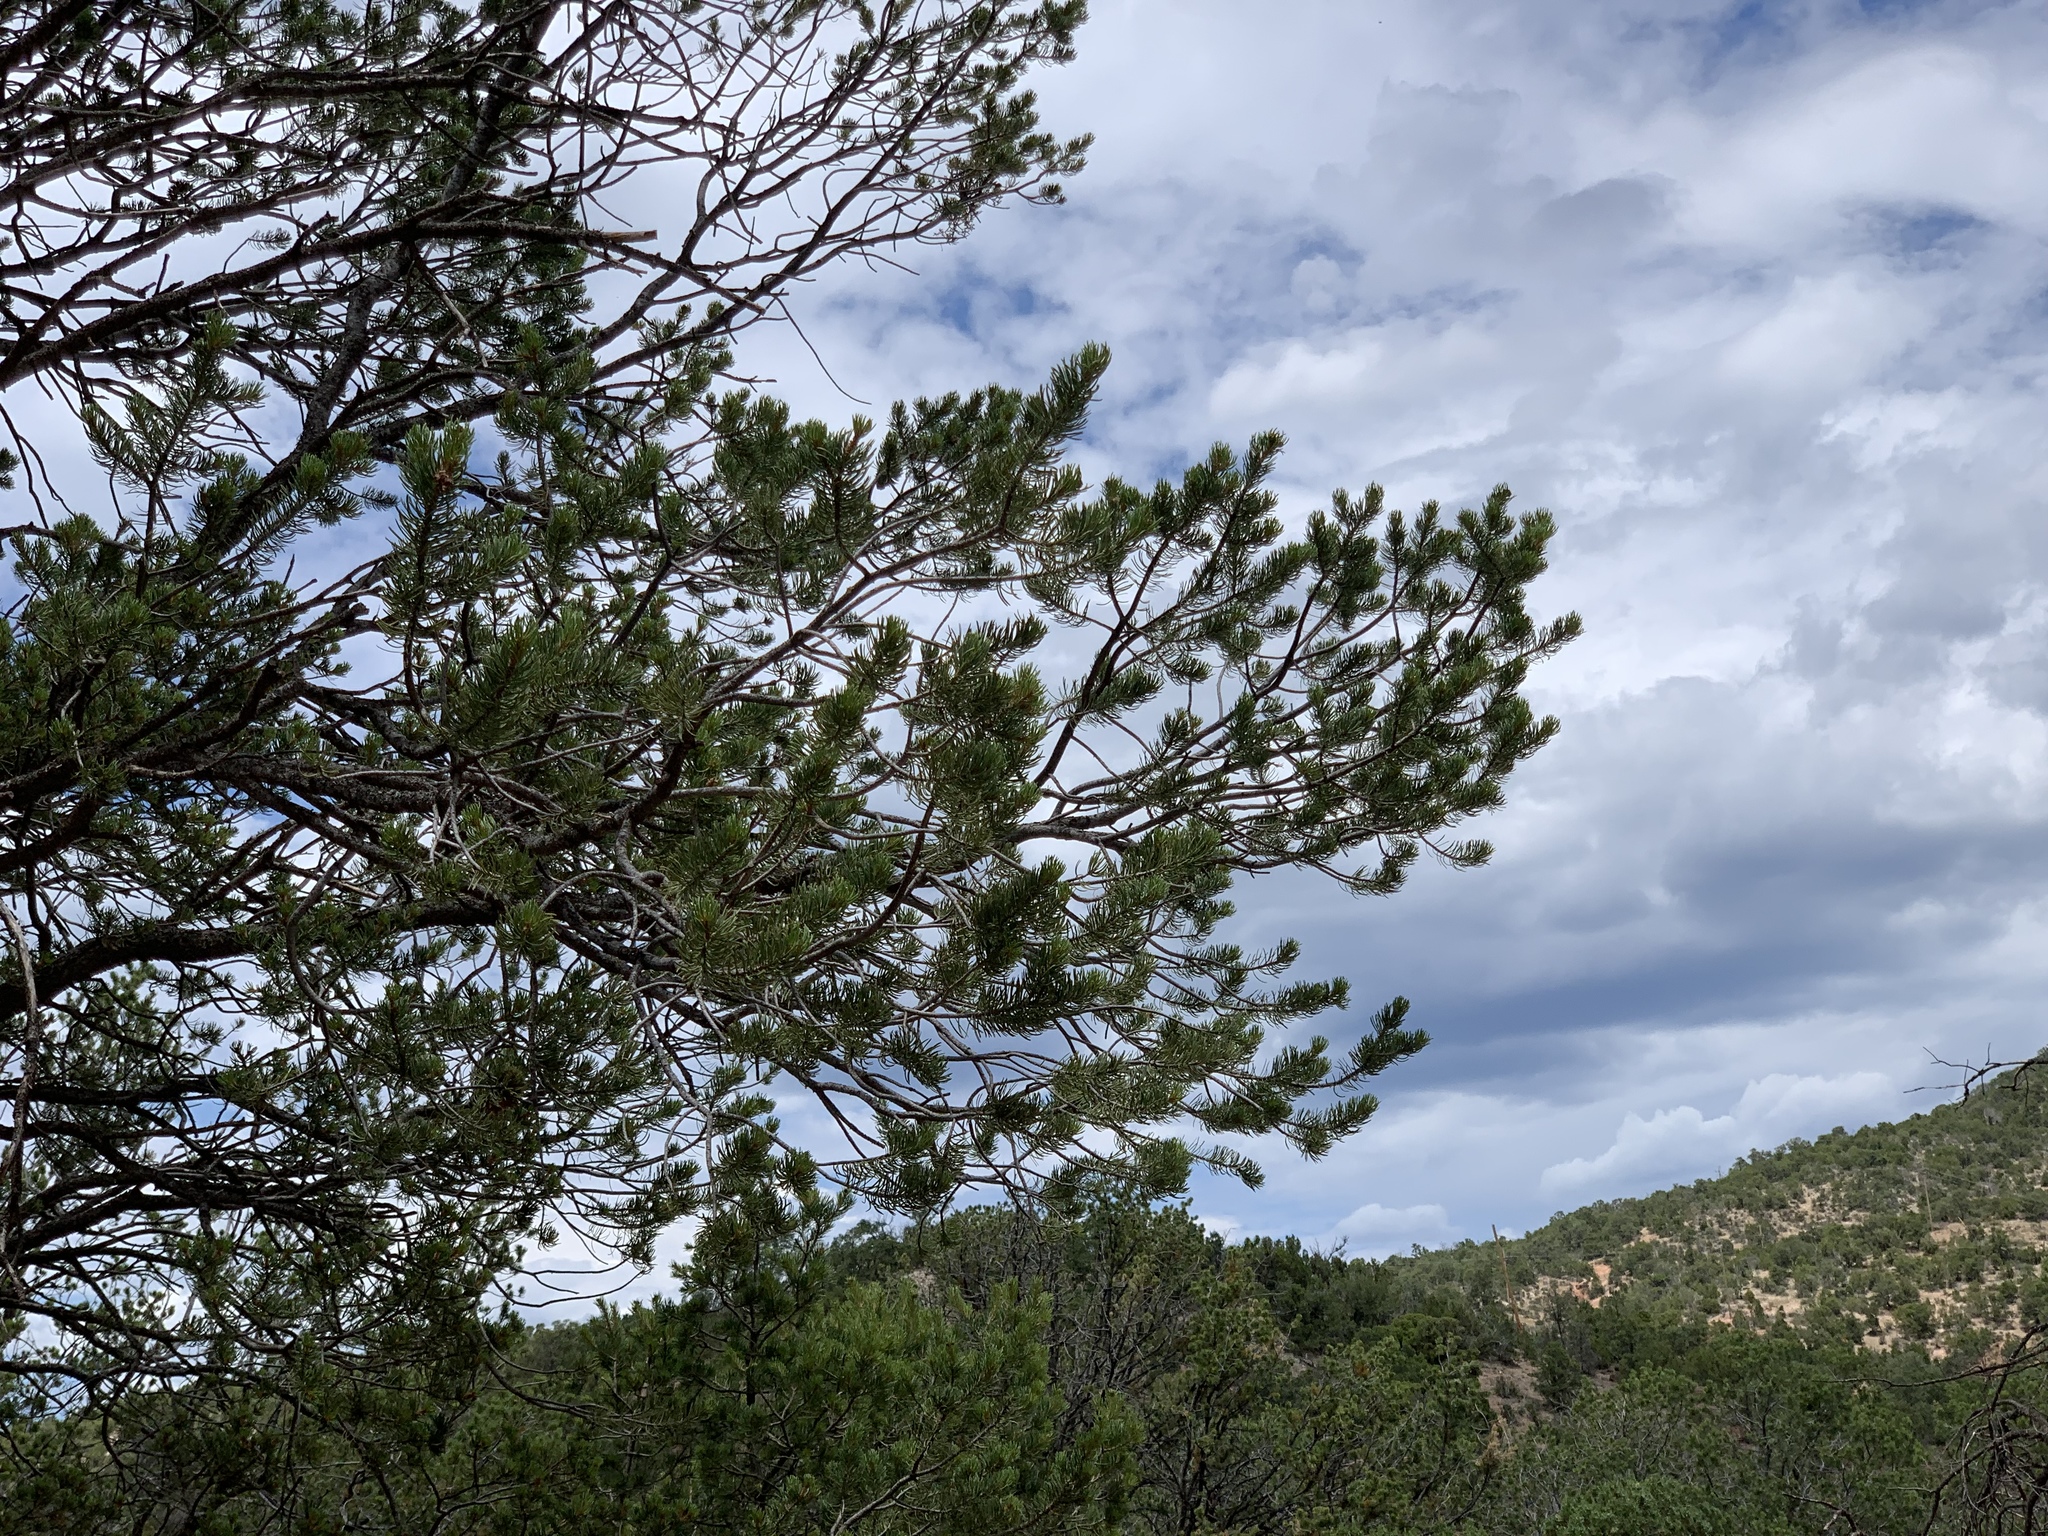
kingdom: Plantae
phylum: Tracheophyta
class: Pinopsida
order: Pinales
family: Pinaceae
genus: Pinus
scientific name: Pinus edulis
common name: Colorado pinyon
